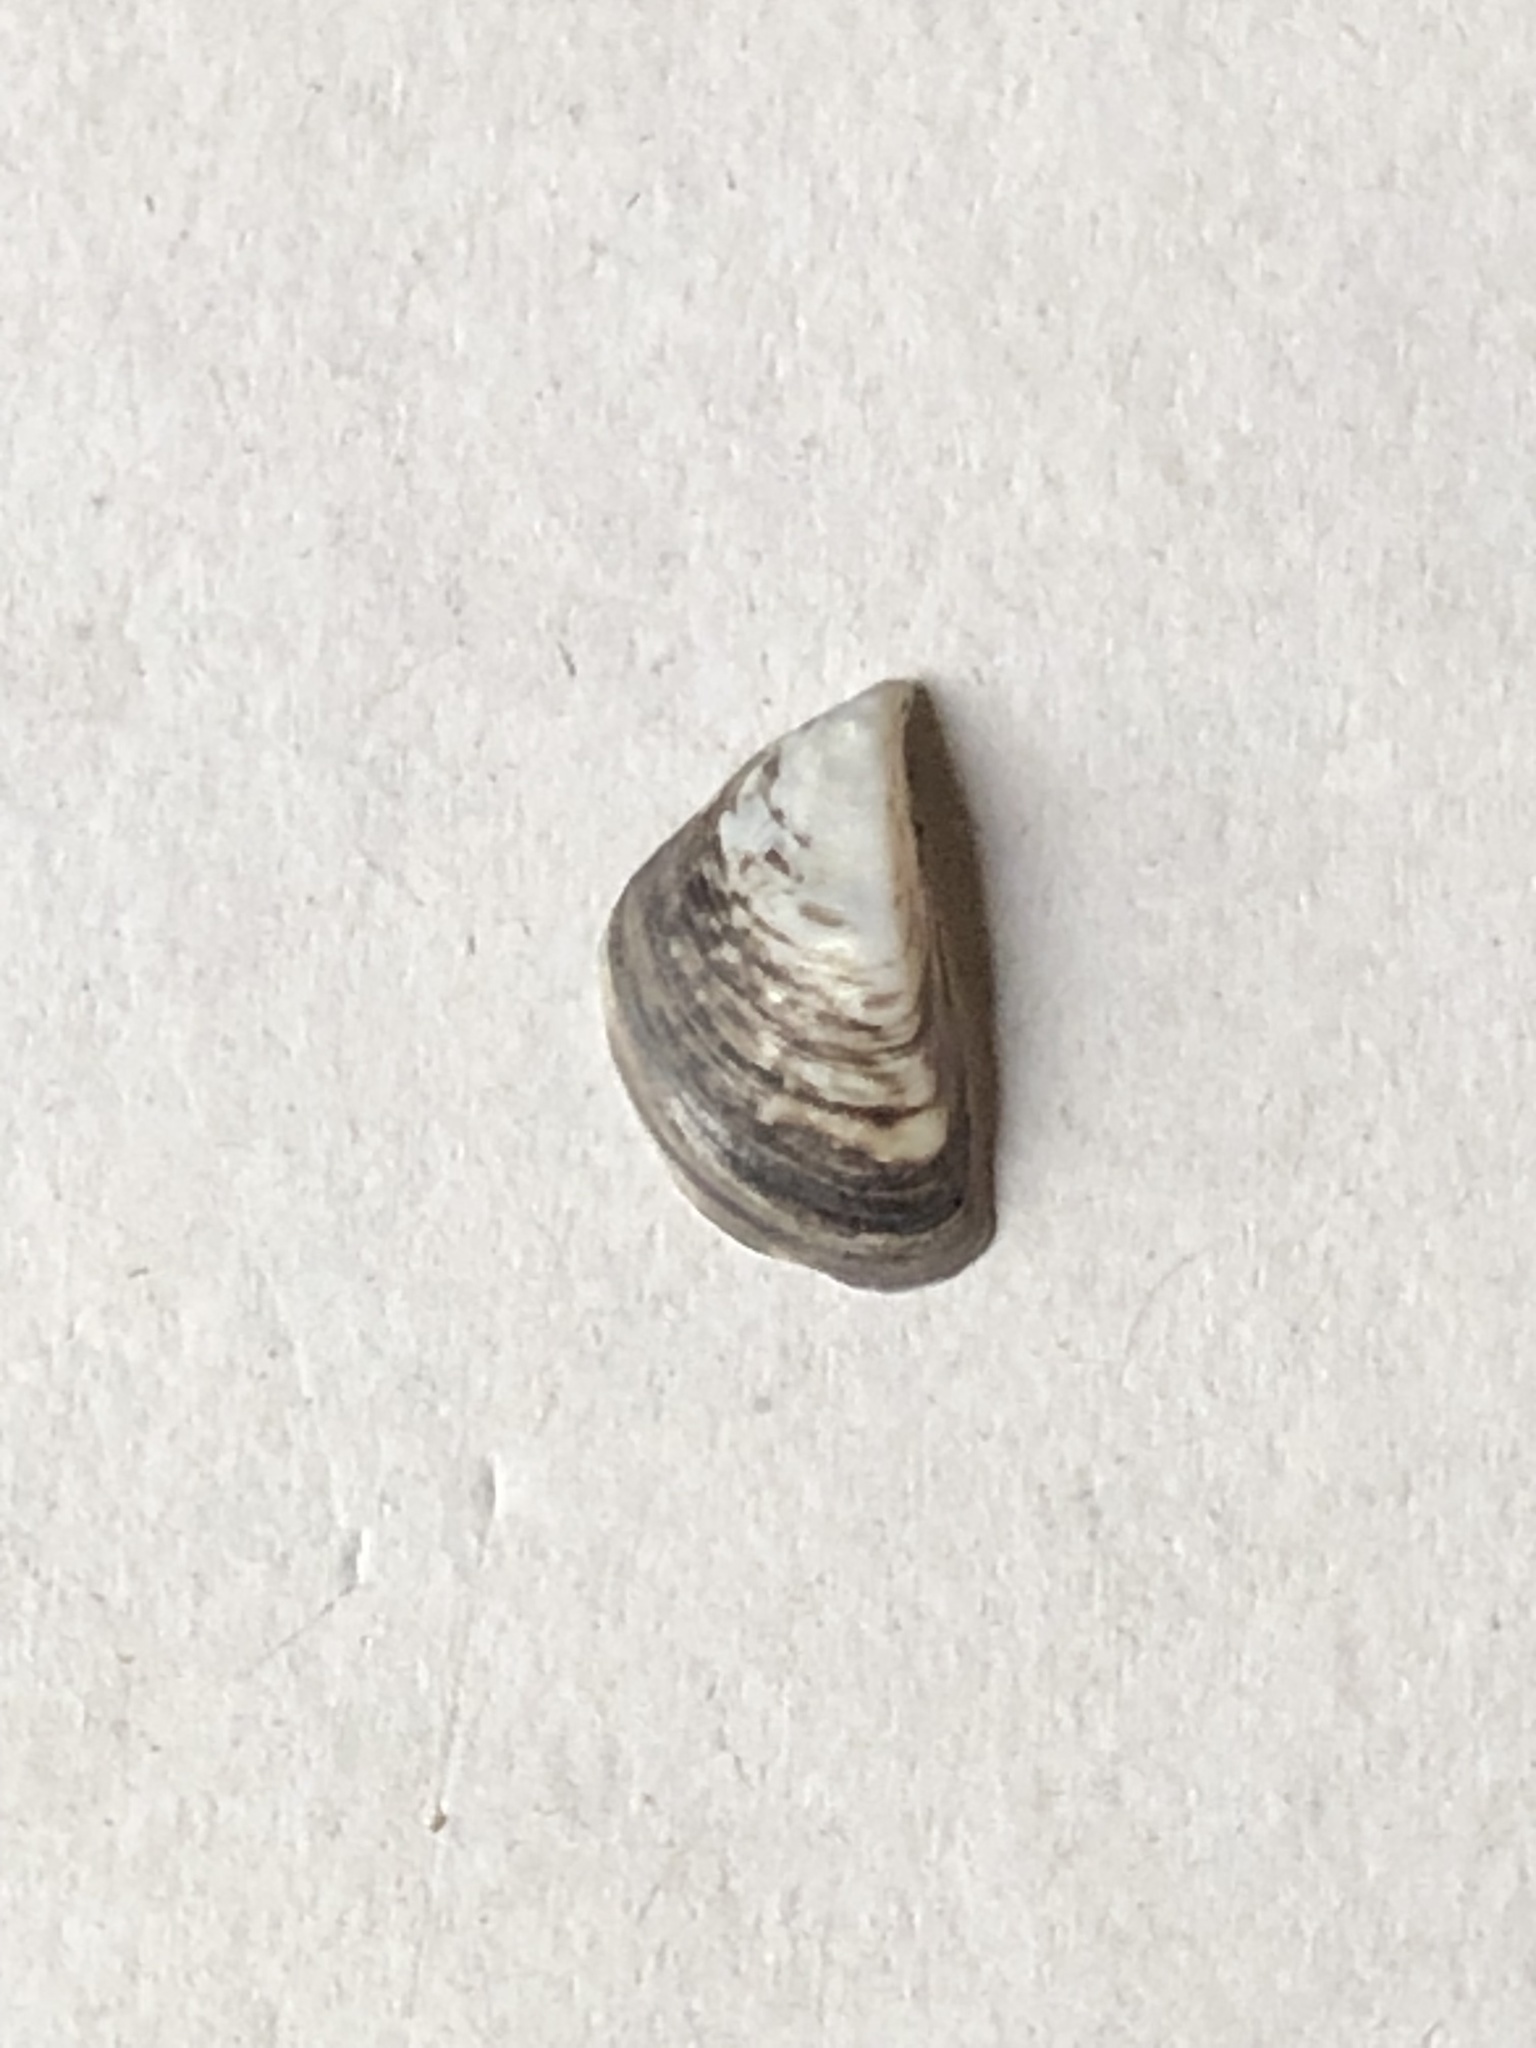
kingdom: Animalia
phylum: Mollusca
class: Bivalvia
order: Myida
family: Dreissenidae
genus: Dreissena
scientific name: Dreissena polymorpha
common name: Zebra mussel
